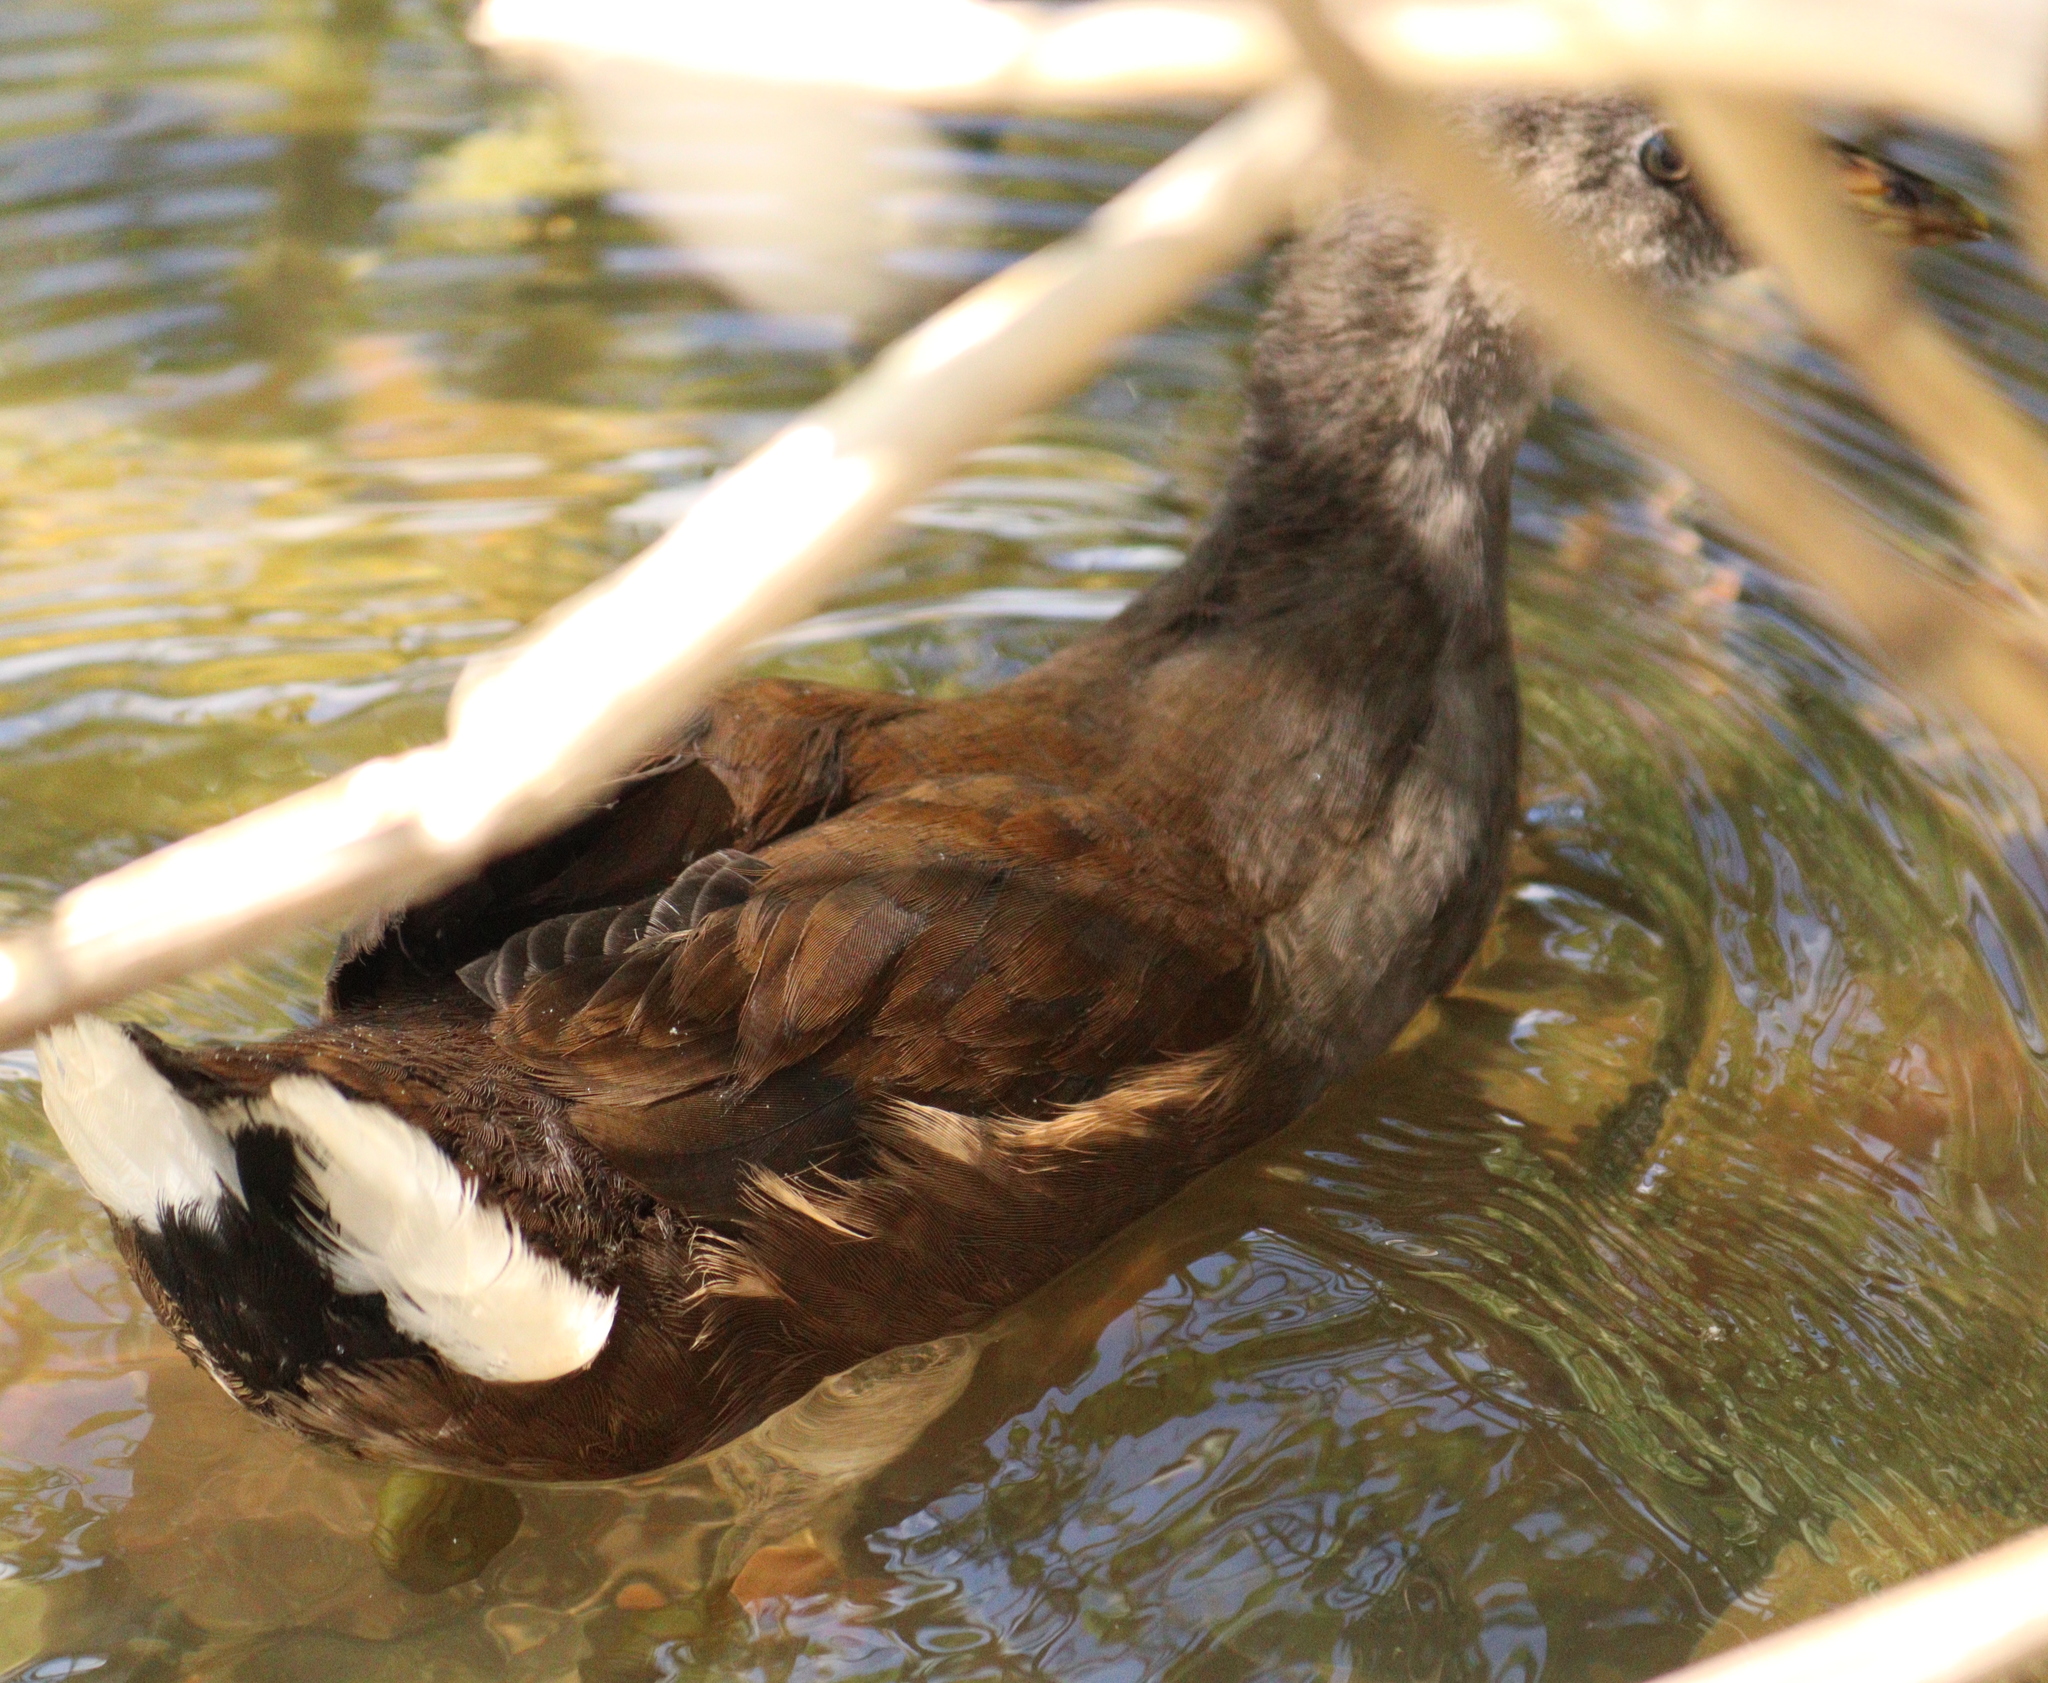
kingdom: Animalia
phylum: Chordata
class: Aves
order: Gruiformes
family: Rallidae
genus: Gallinula
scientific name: Gallinula chloropus
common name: Common moorhen
